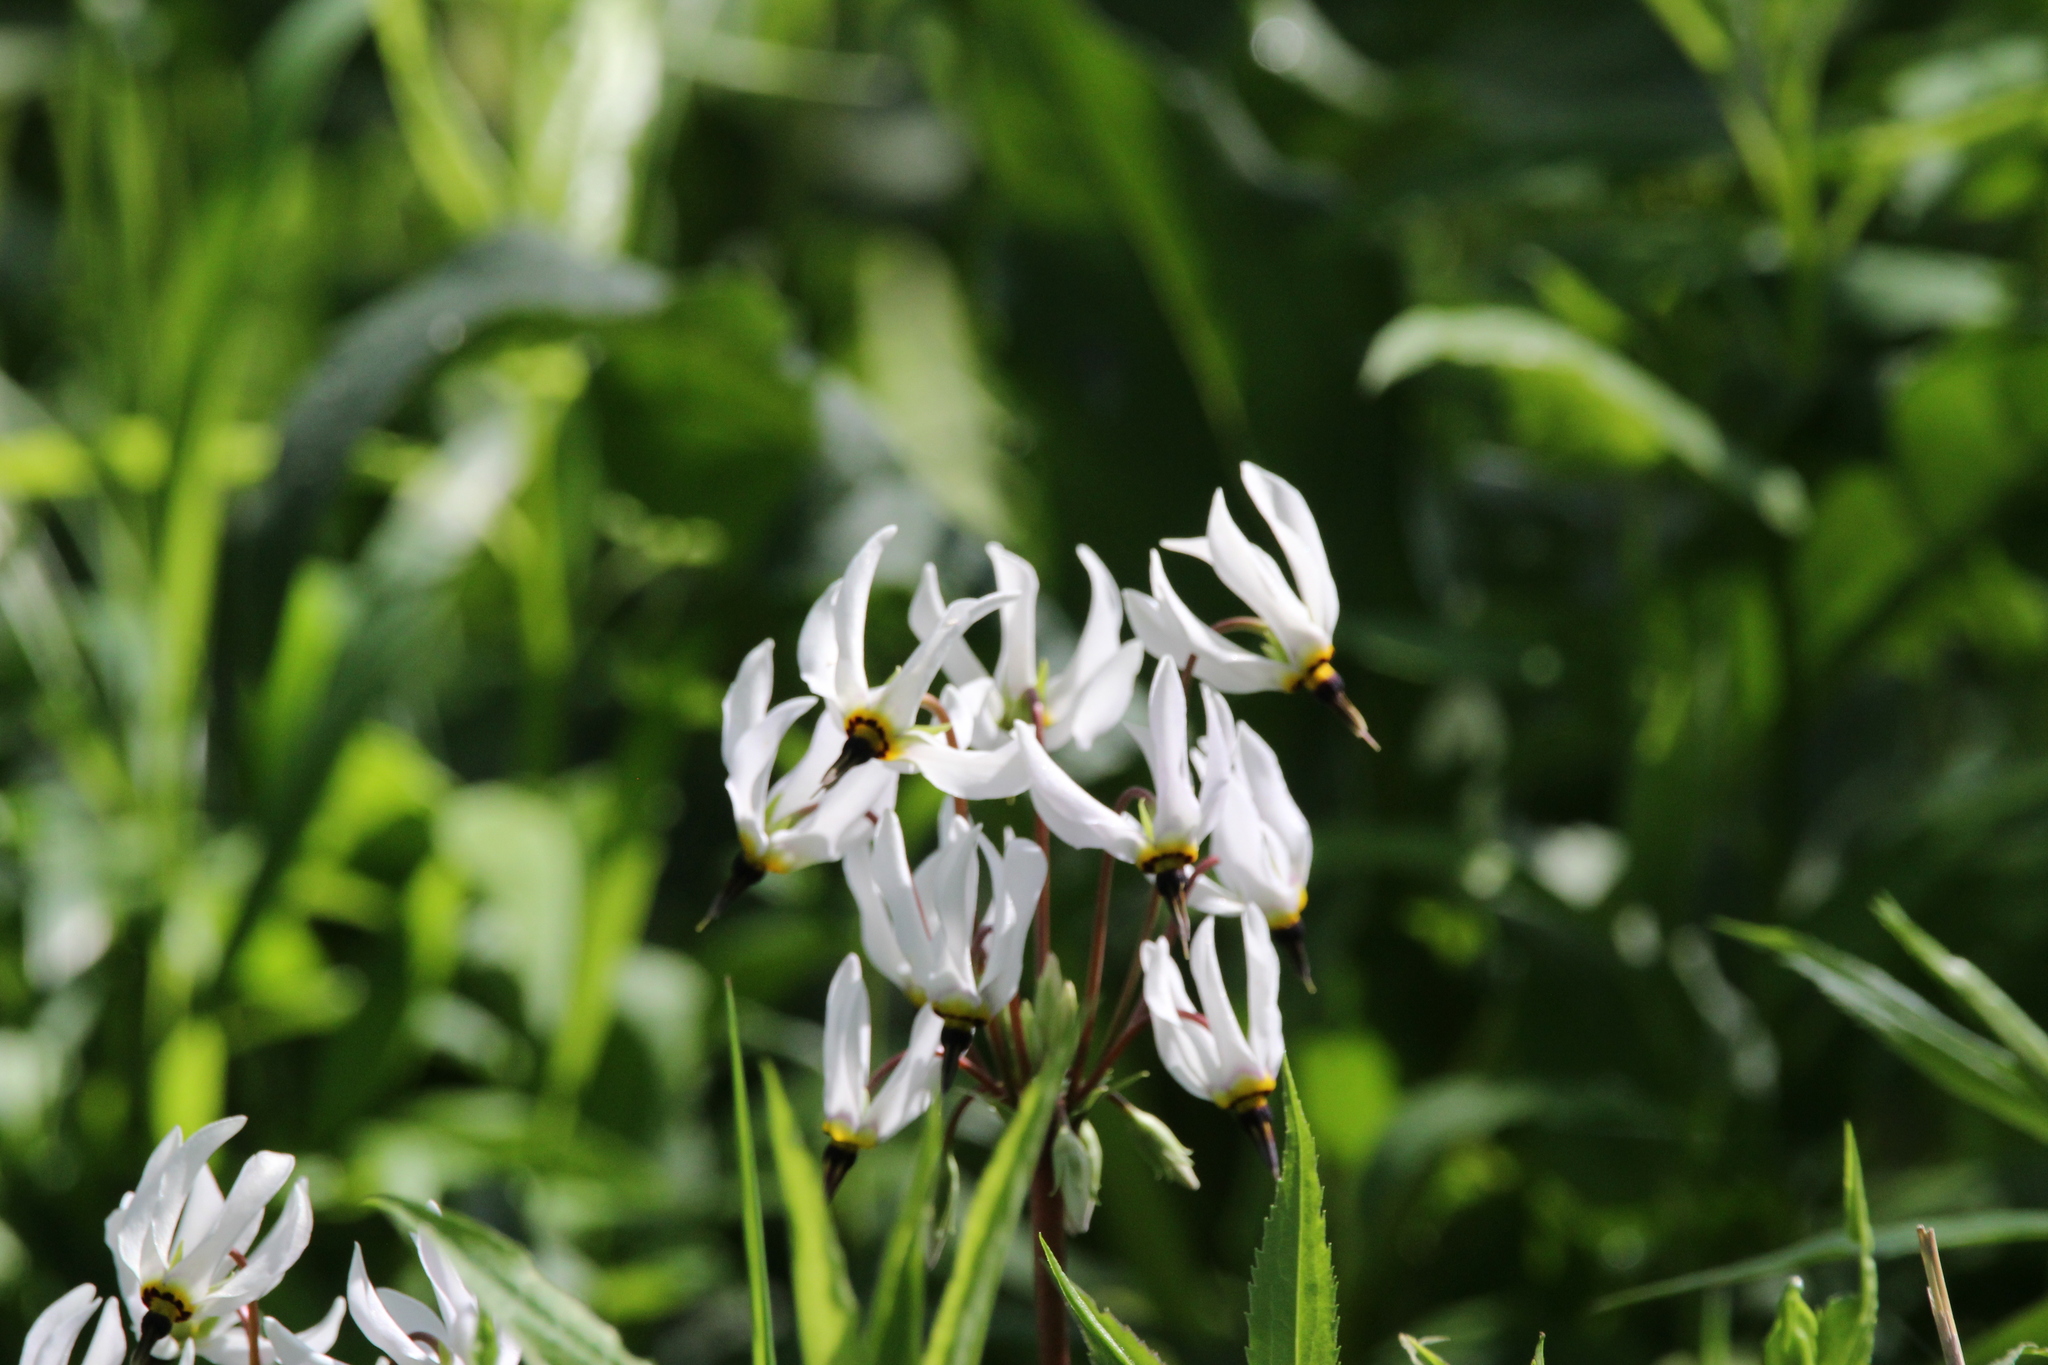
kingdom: Plantae
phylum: Tracheophyta
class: Magnoliopsida
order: Ericales
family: Primulaceae
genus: Dodecatheon
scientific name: Dodecatheon meadia
